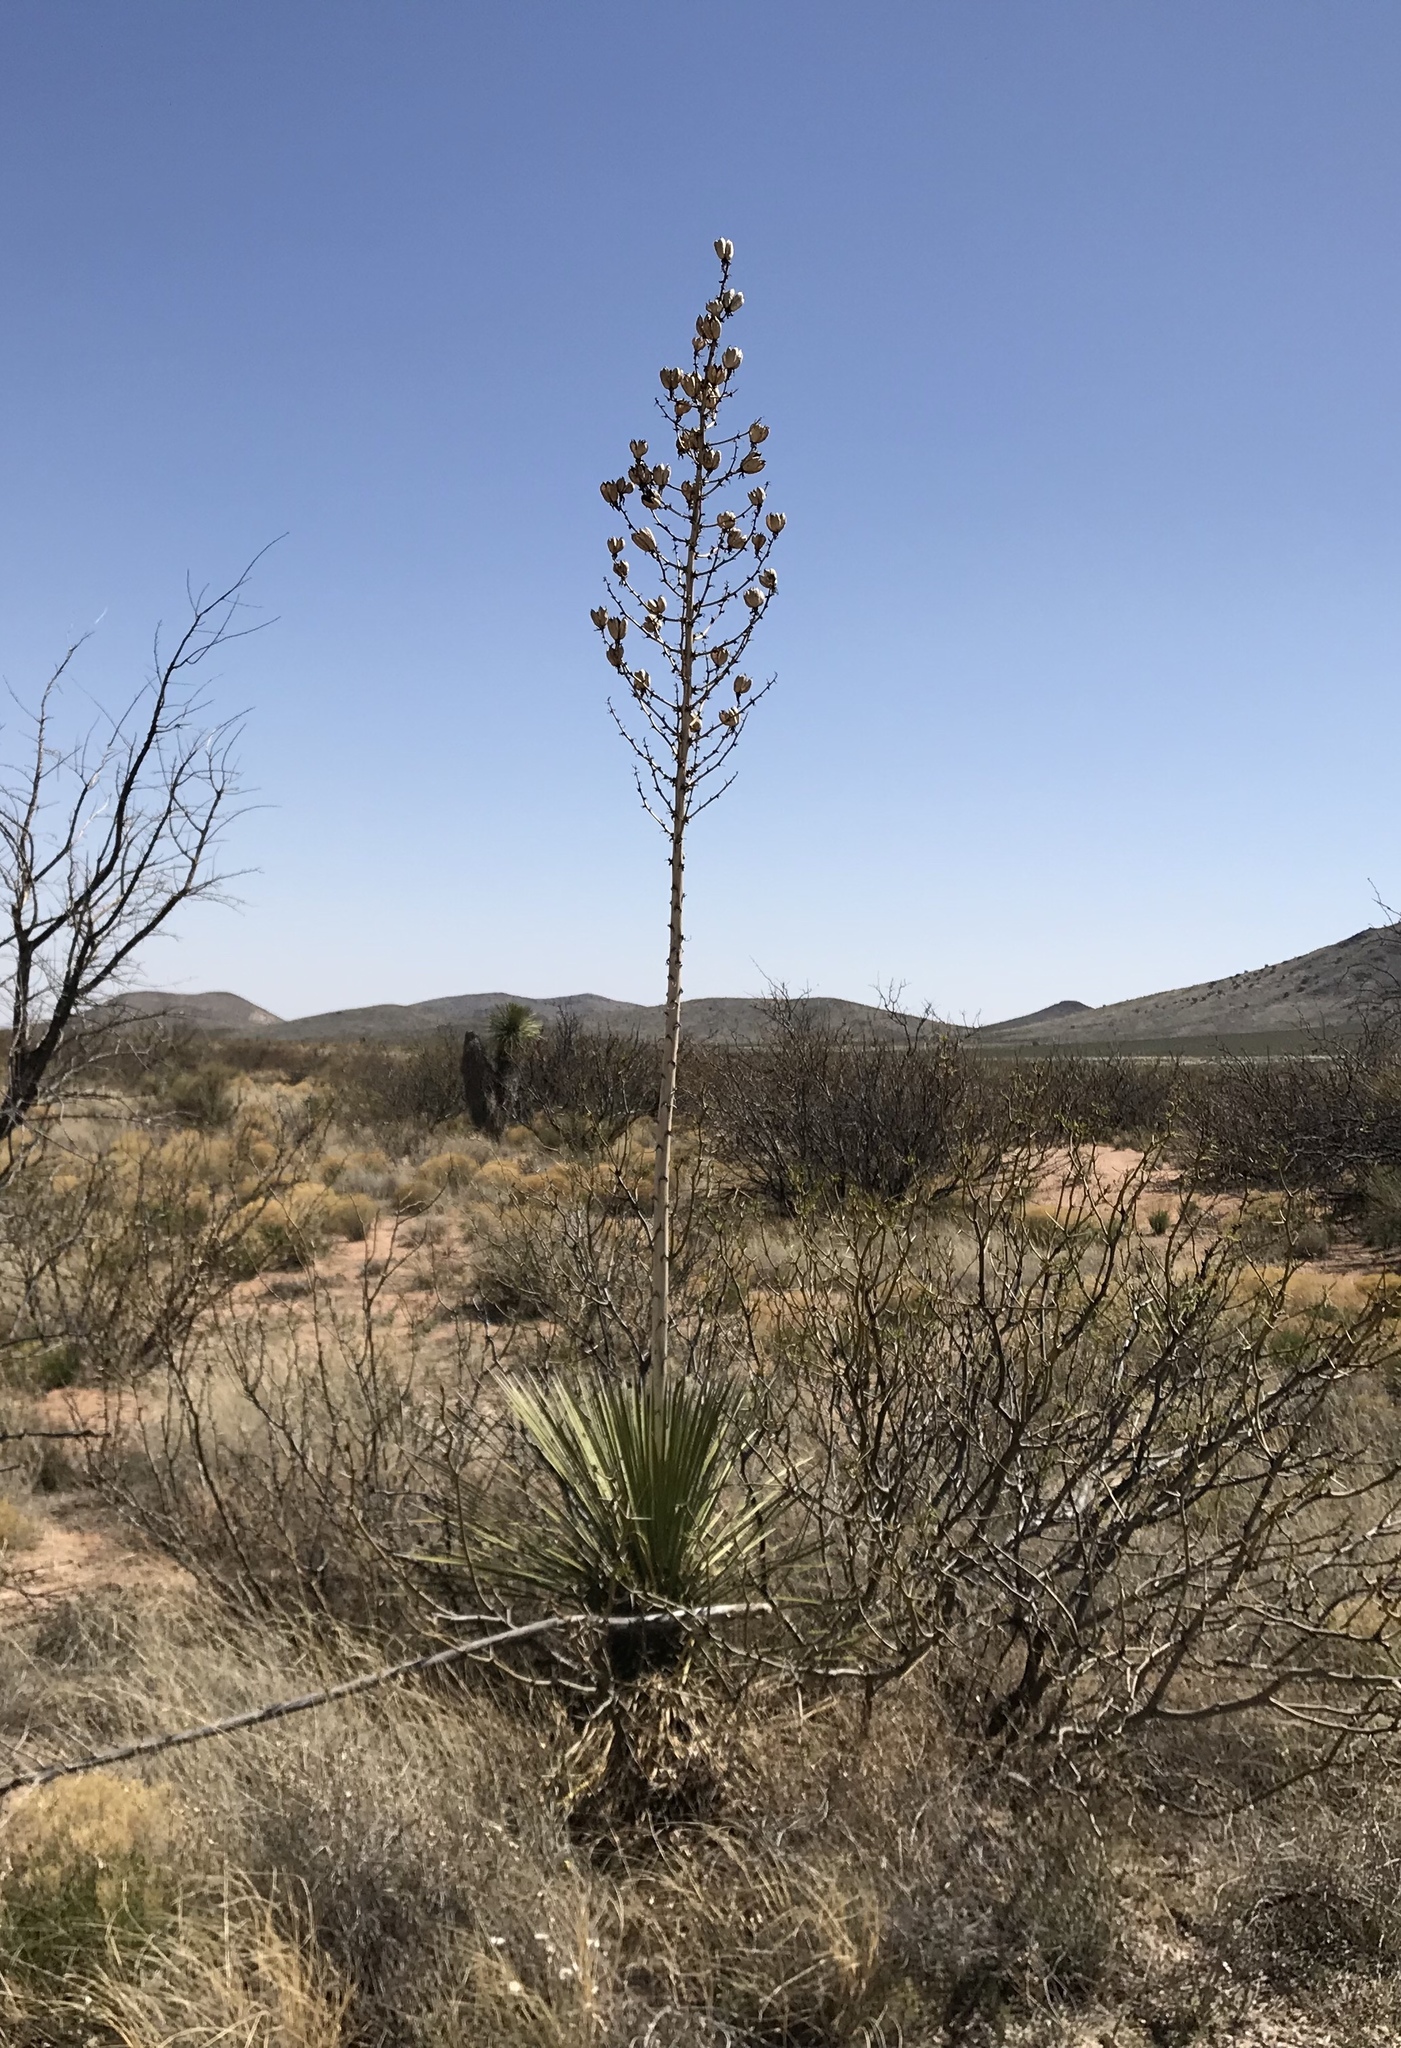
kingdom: Plantae
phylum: Tracheophyta
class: Liliopsida
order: Asparagales
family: Asparagaceae
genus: Yucca
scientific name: Yucca elata
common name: Palmella
